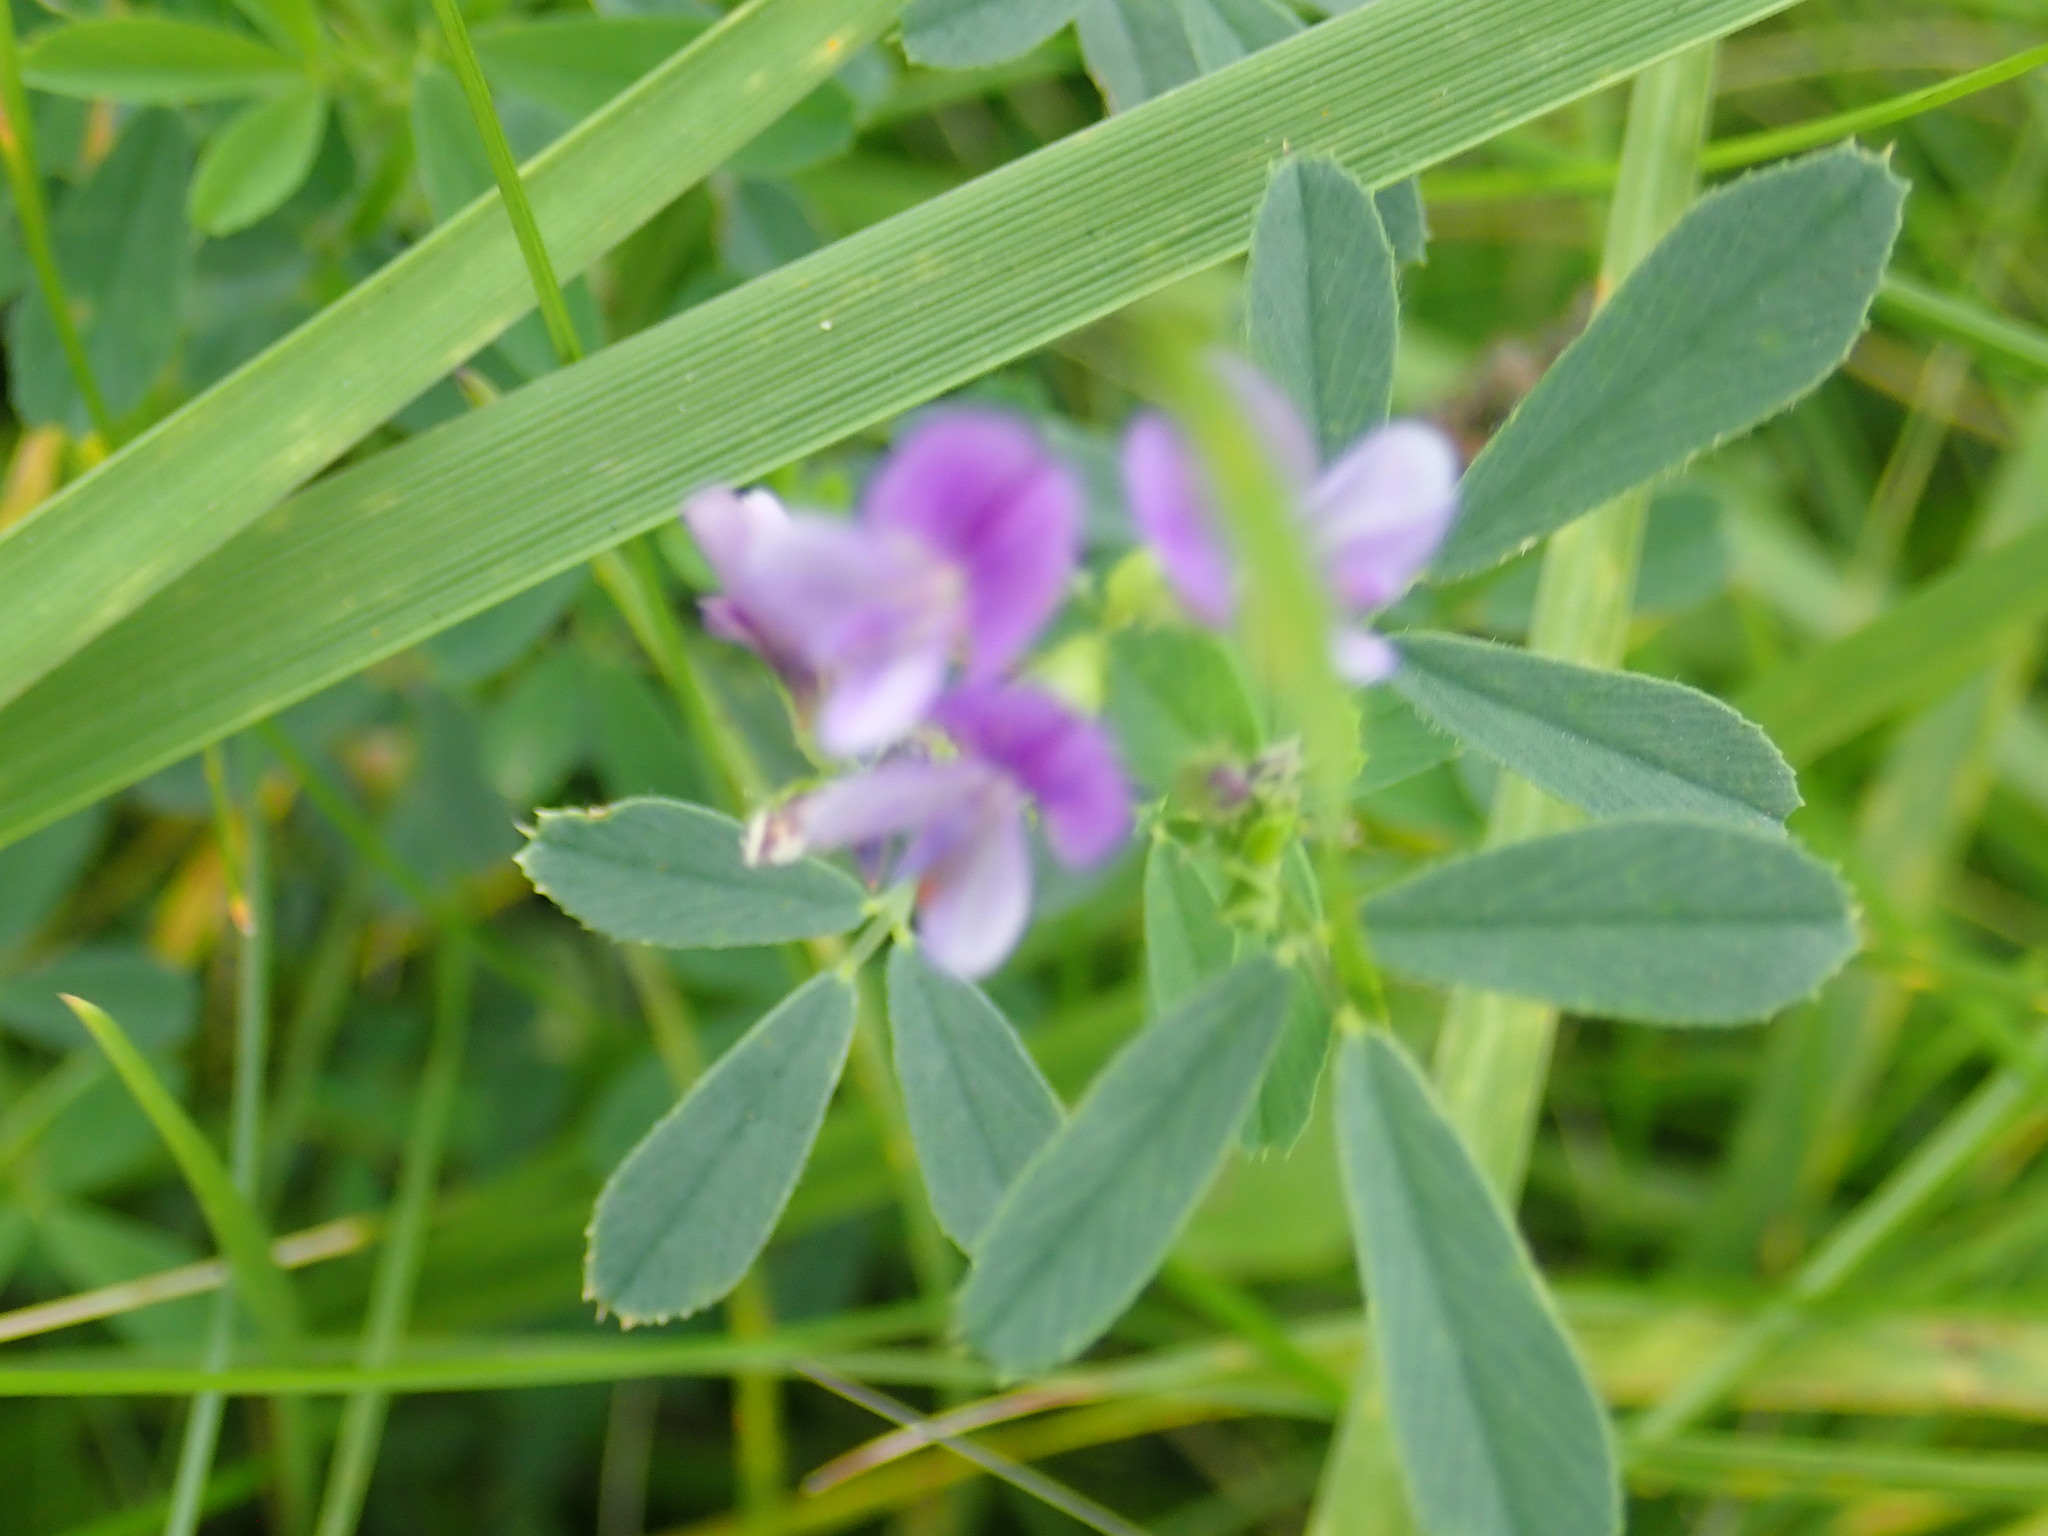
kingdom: Plantae
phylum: Tracheophyta
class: Magnoliopsida
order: Fabales
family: Fabaceae
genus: Coronilla
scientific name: Coronilla varia
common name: Crownvetch
